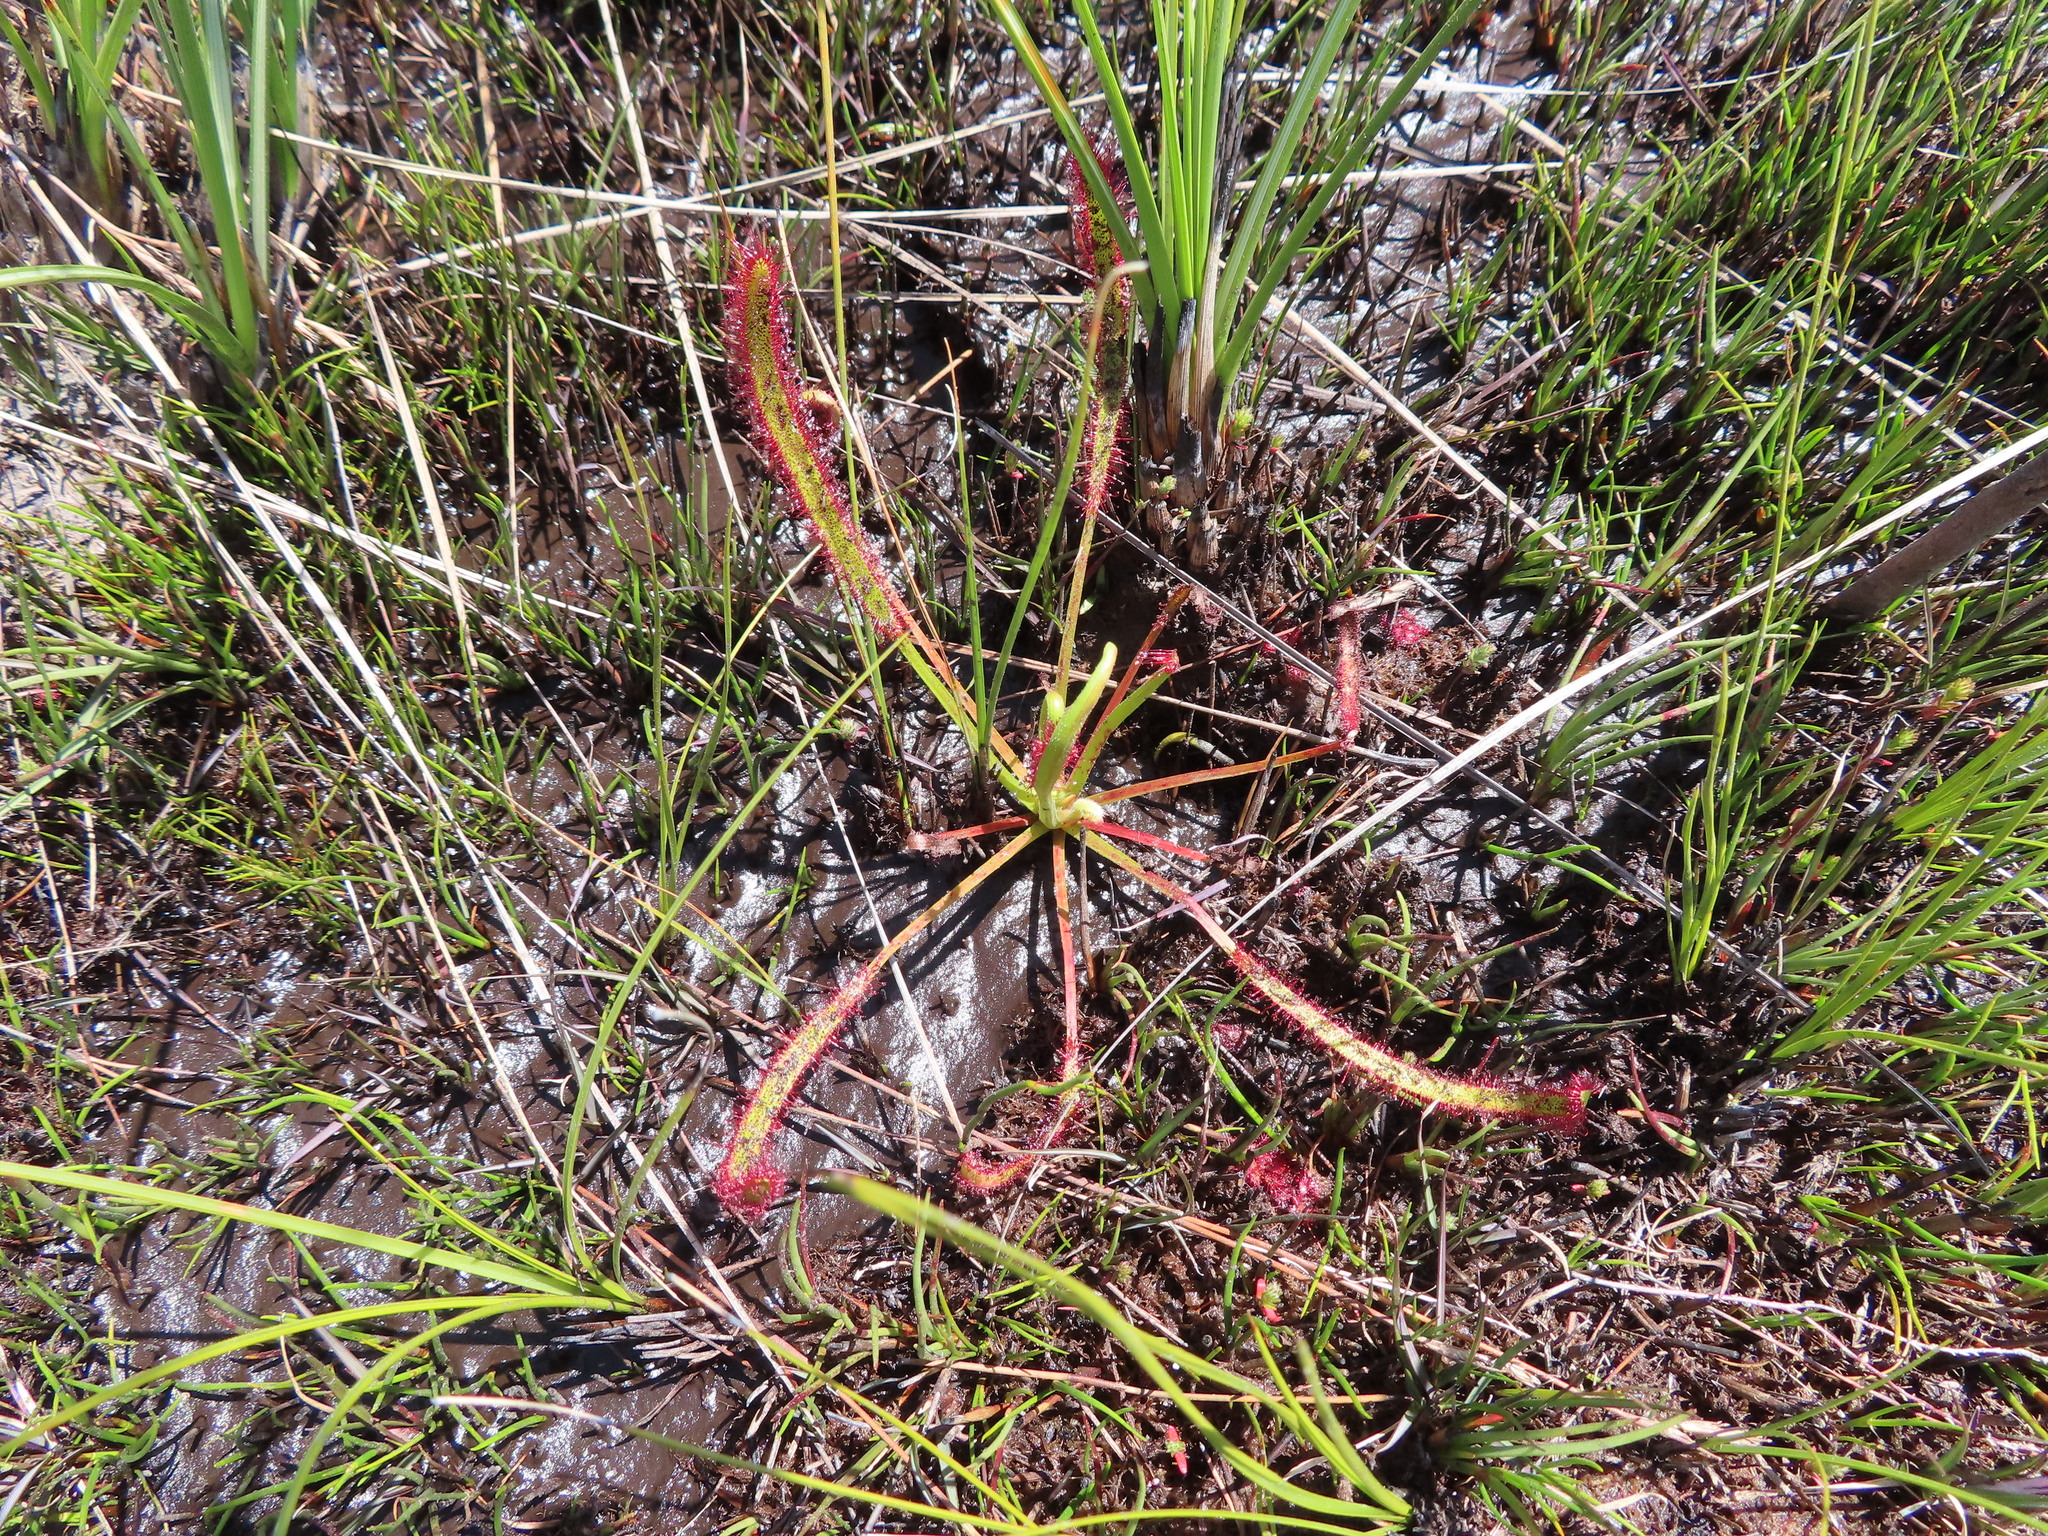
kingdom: Plantae
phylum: Tracheophyta
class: Magnoliopsida
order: Caryophyllales
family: Droseraceae
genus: Drosera
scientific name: Drosera capensis
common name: Cape sundew
